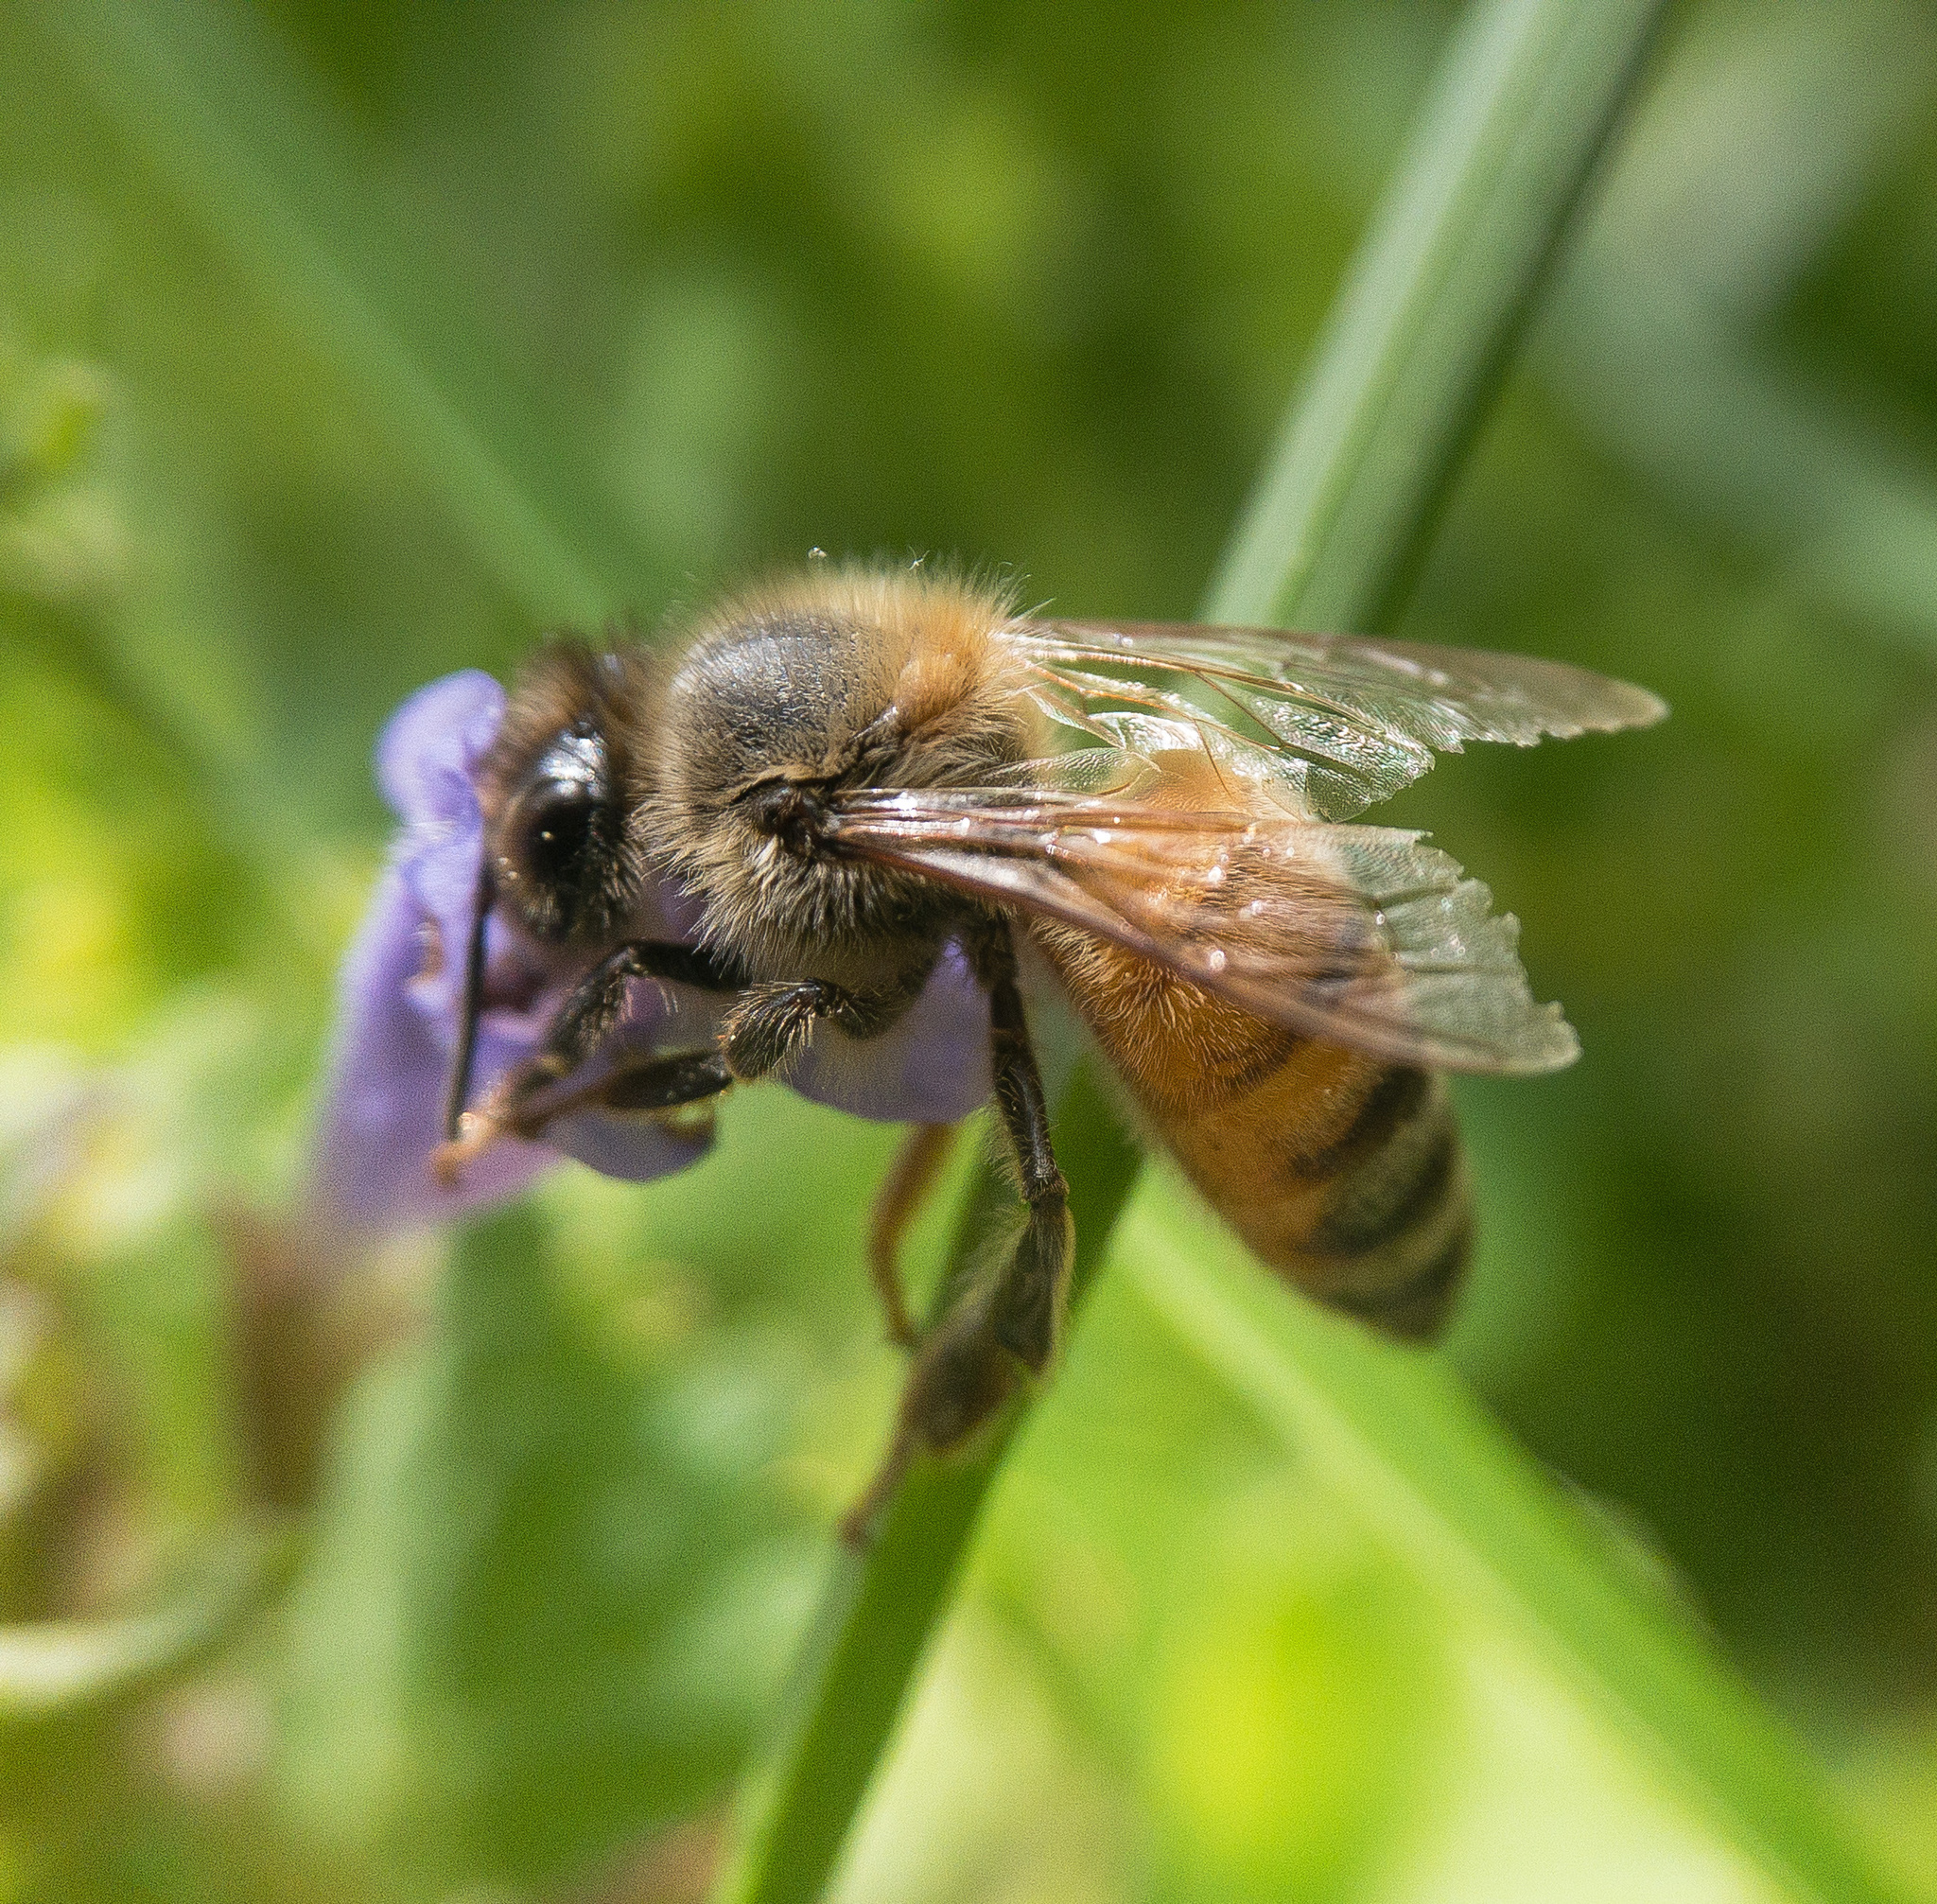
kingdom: Animalia
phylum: Arthropoda
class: Insecta
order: Hymenoptera
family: Apidae
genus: Apis
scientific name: Apis mellifera
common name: Honey bee
